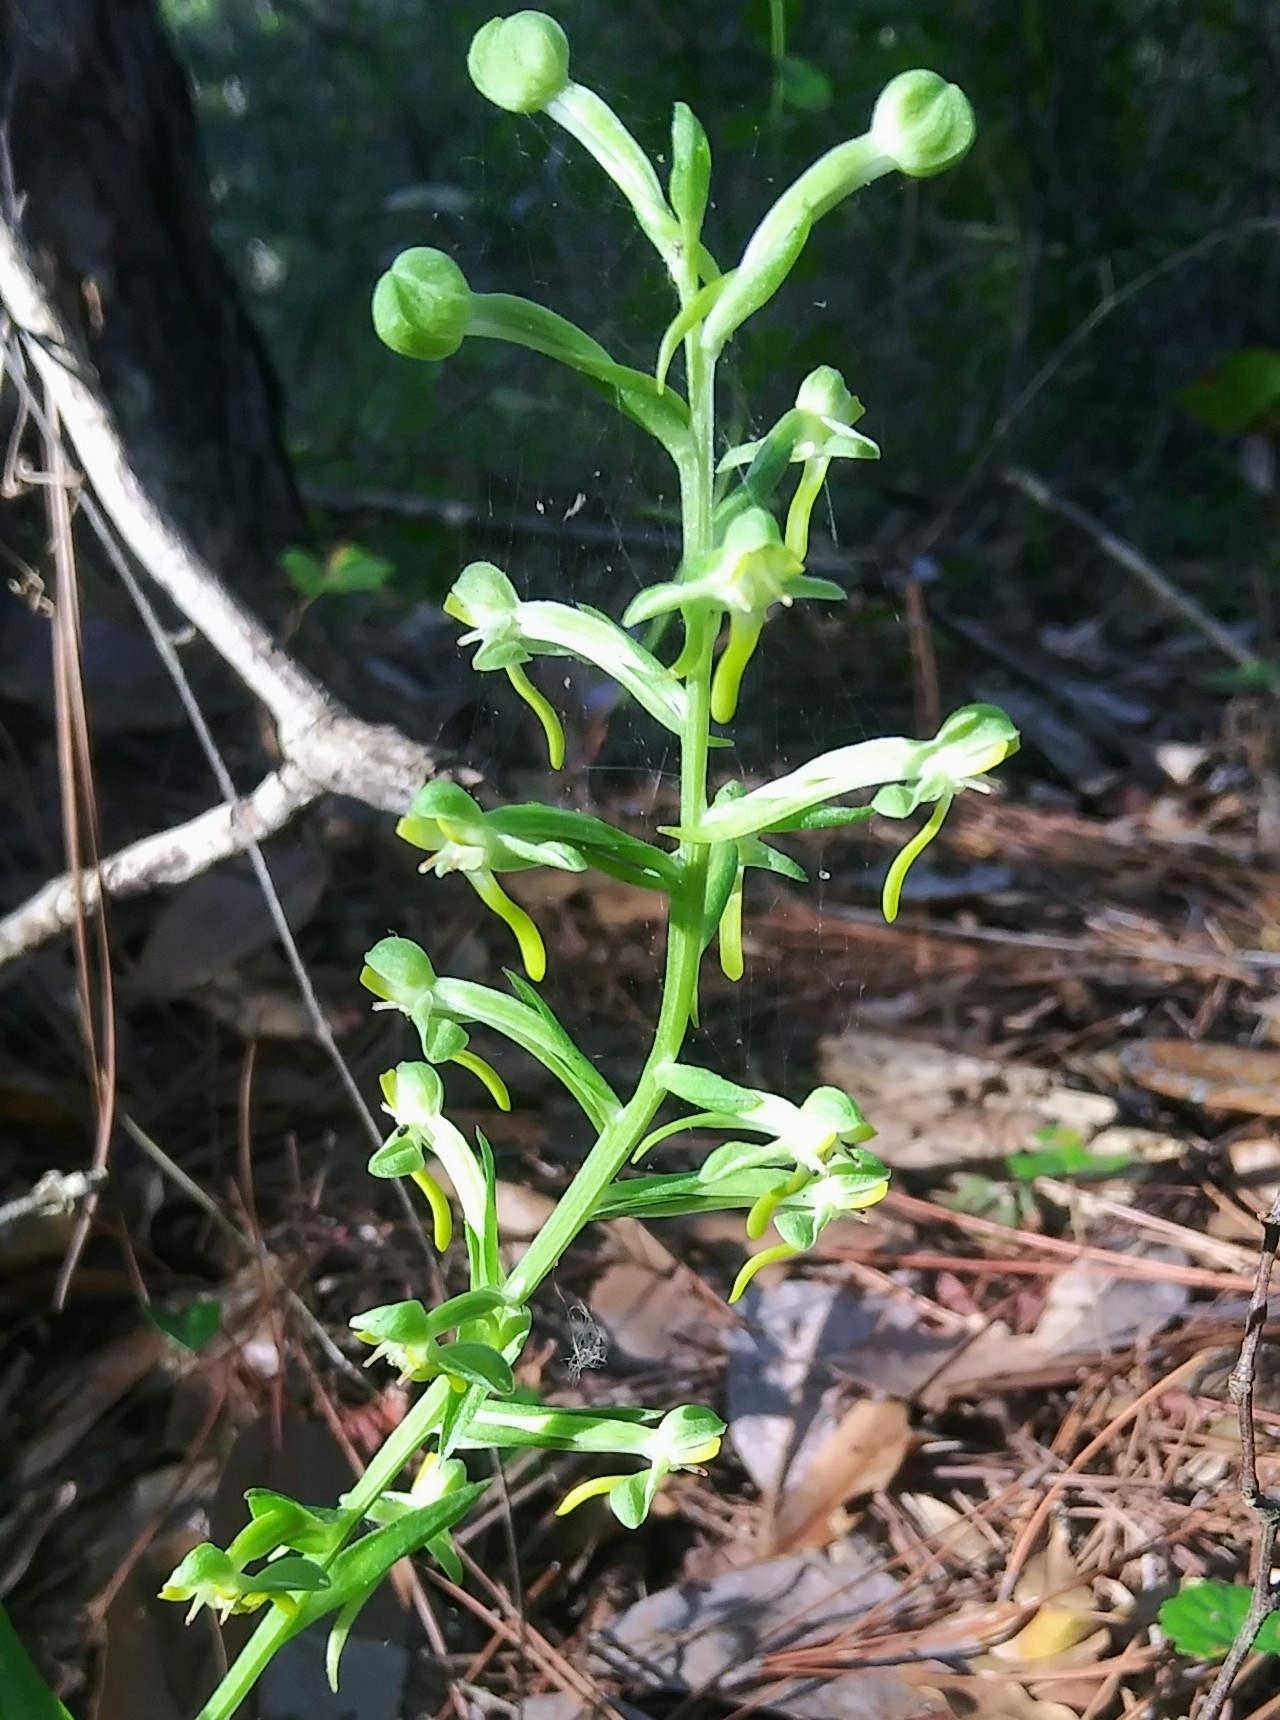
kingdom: Plantae
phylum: Tracheophyta
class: Liliopsida
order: Asparagales
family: Orchidaceae
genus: Habenaria
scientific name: Habenaria floribunda
